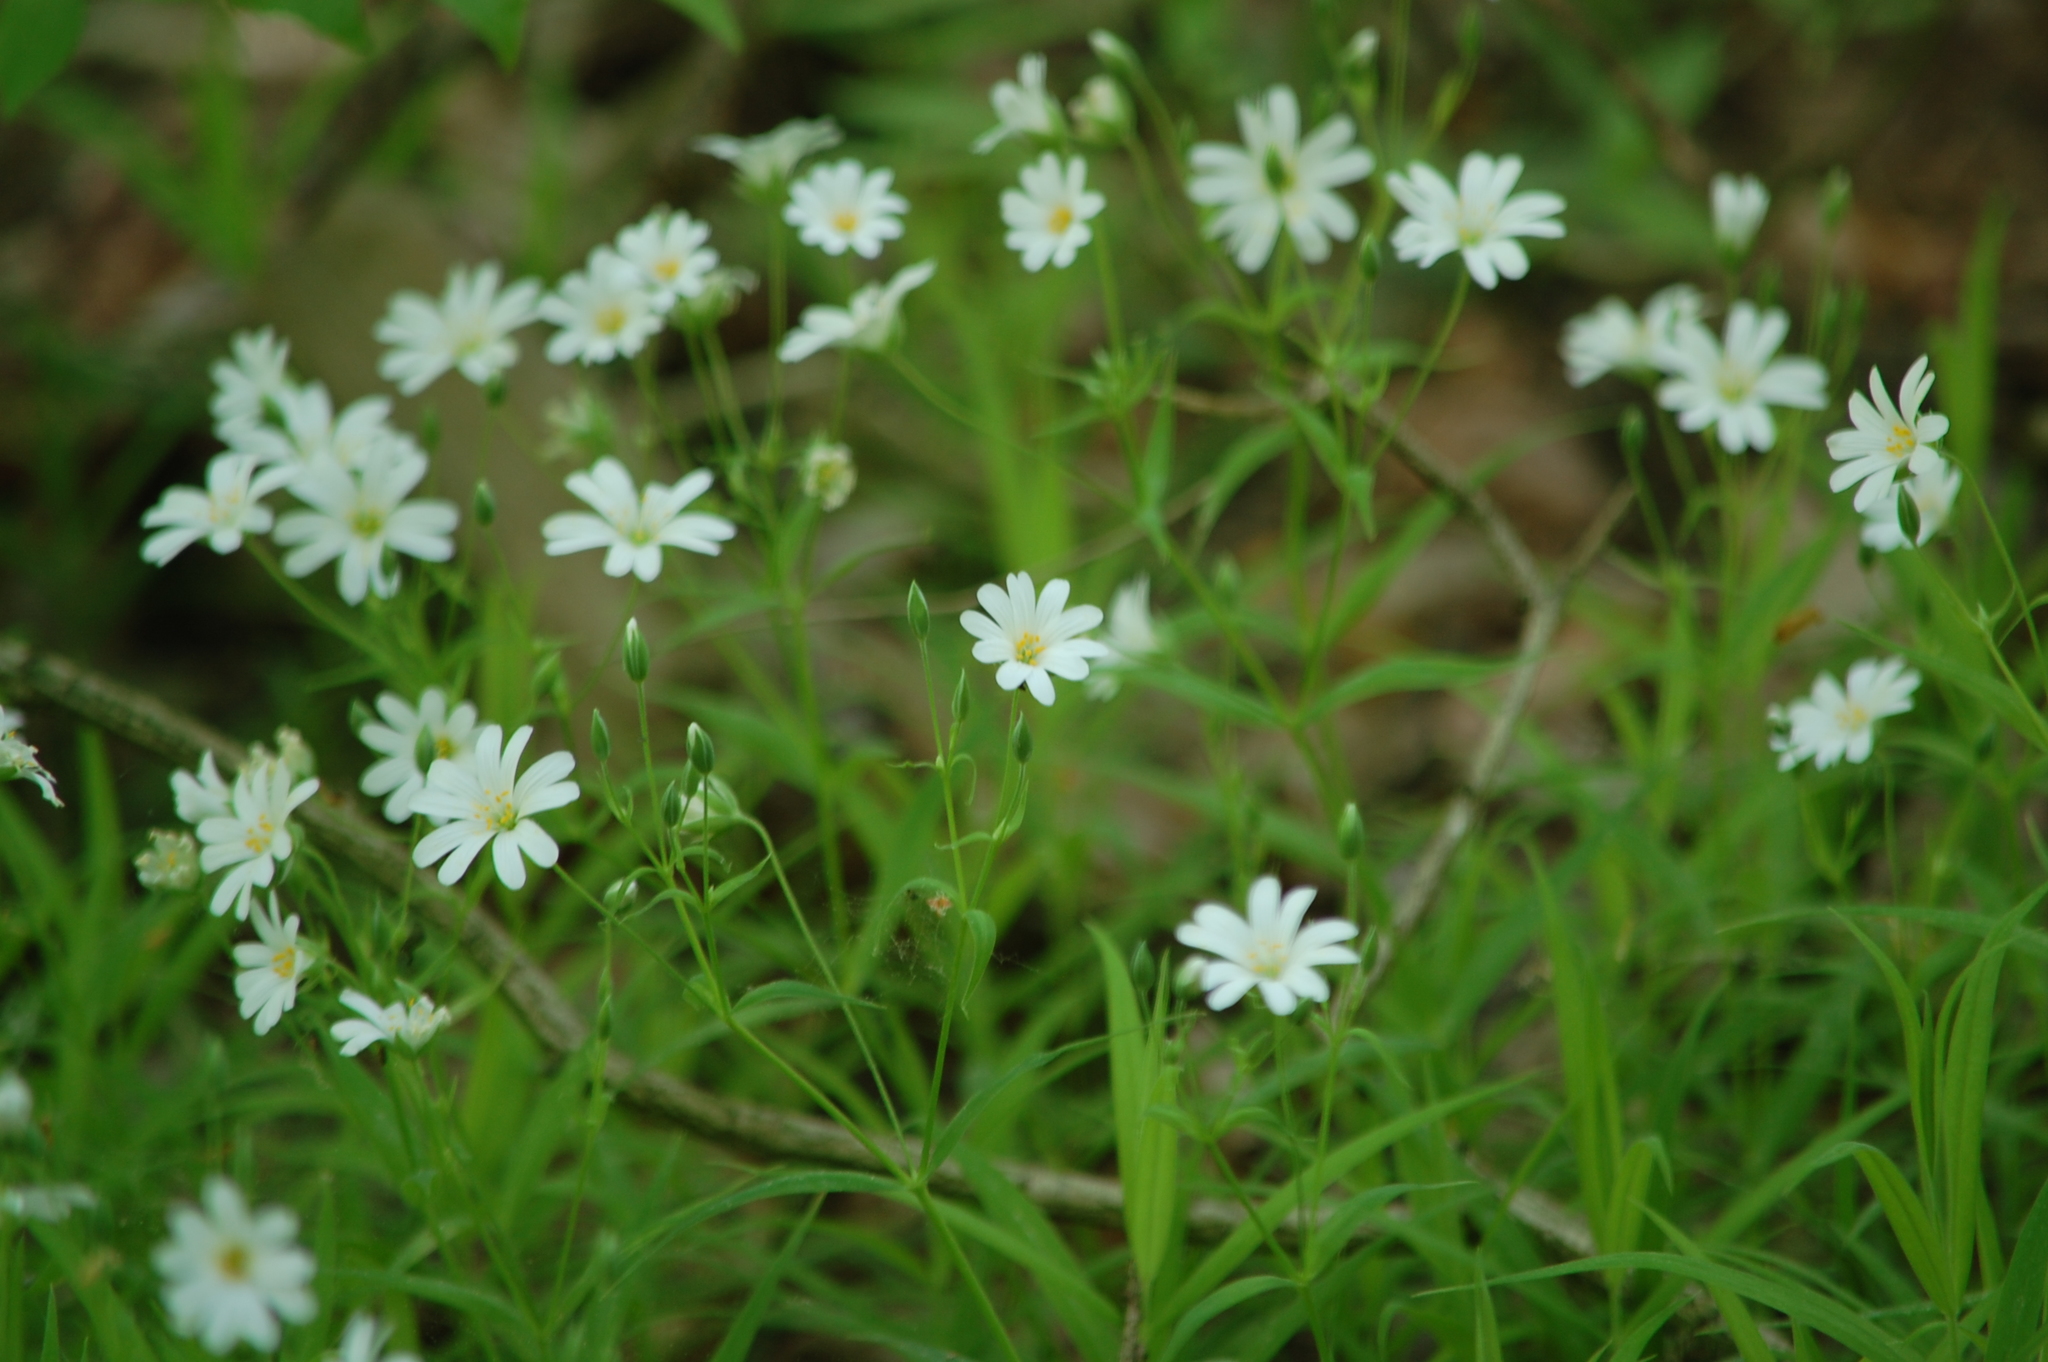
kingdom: Plantae
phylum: Tracheophyta
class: Magnoliopsida
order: Caryophyllales
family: Caryophyllaceae
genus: Rabelera
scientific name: Rabelera holostea
